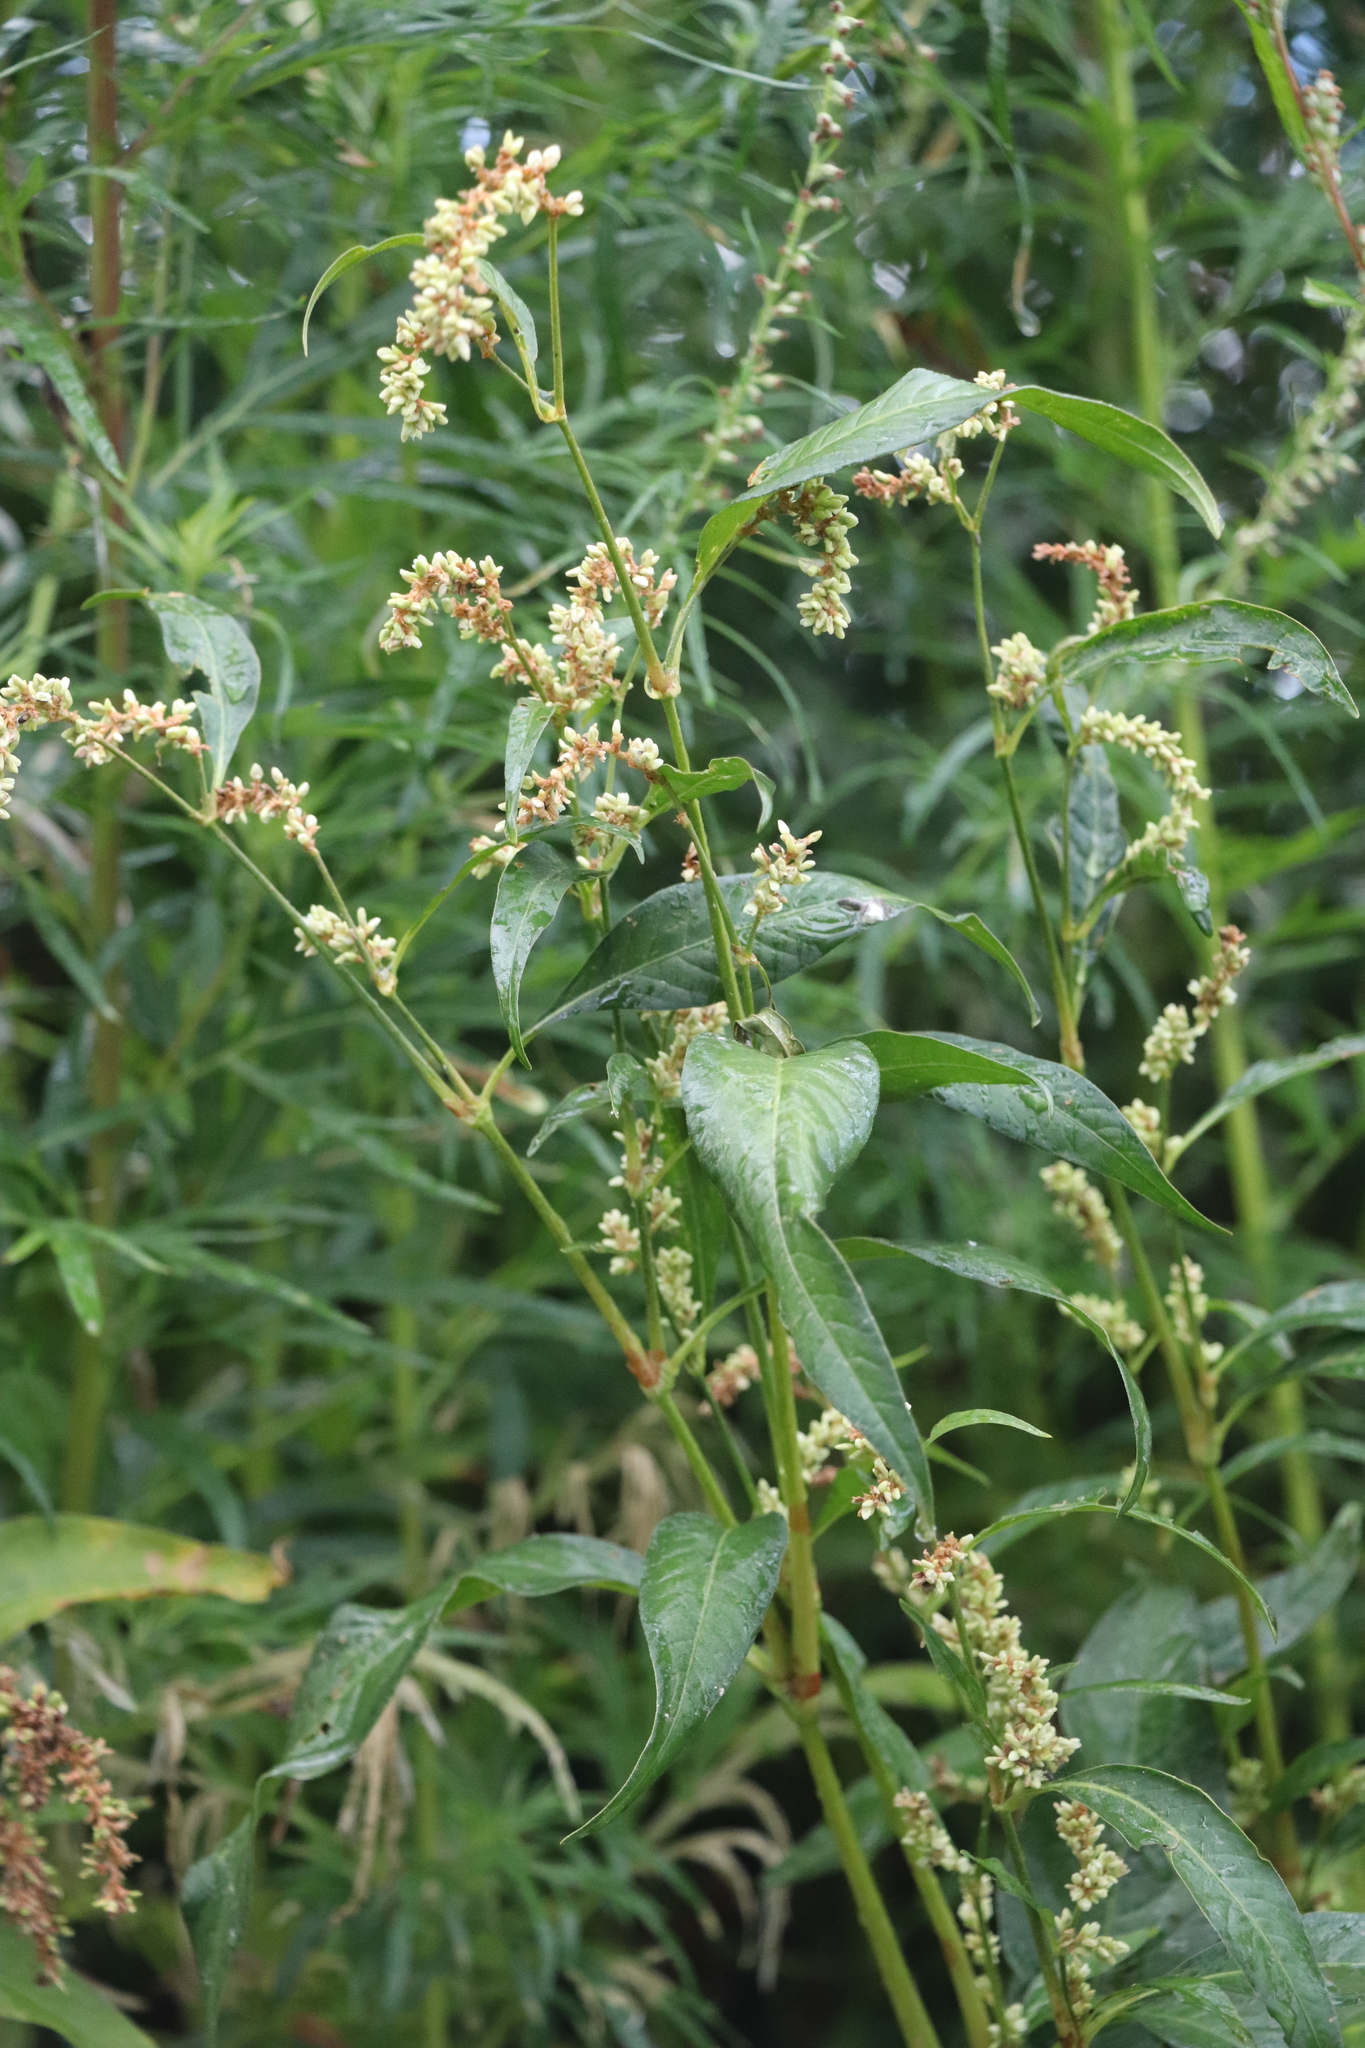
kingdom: Plantae
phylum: Tracheophyta
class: Magnoliopsida
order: Caryophyllales
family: Polygonaceae
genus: Persicaria
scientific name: Persicaria lapathifolia
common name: Curlytop knotweed
